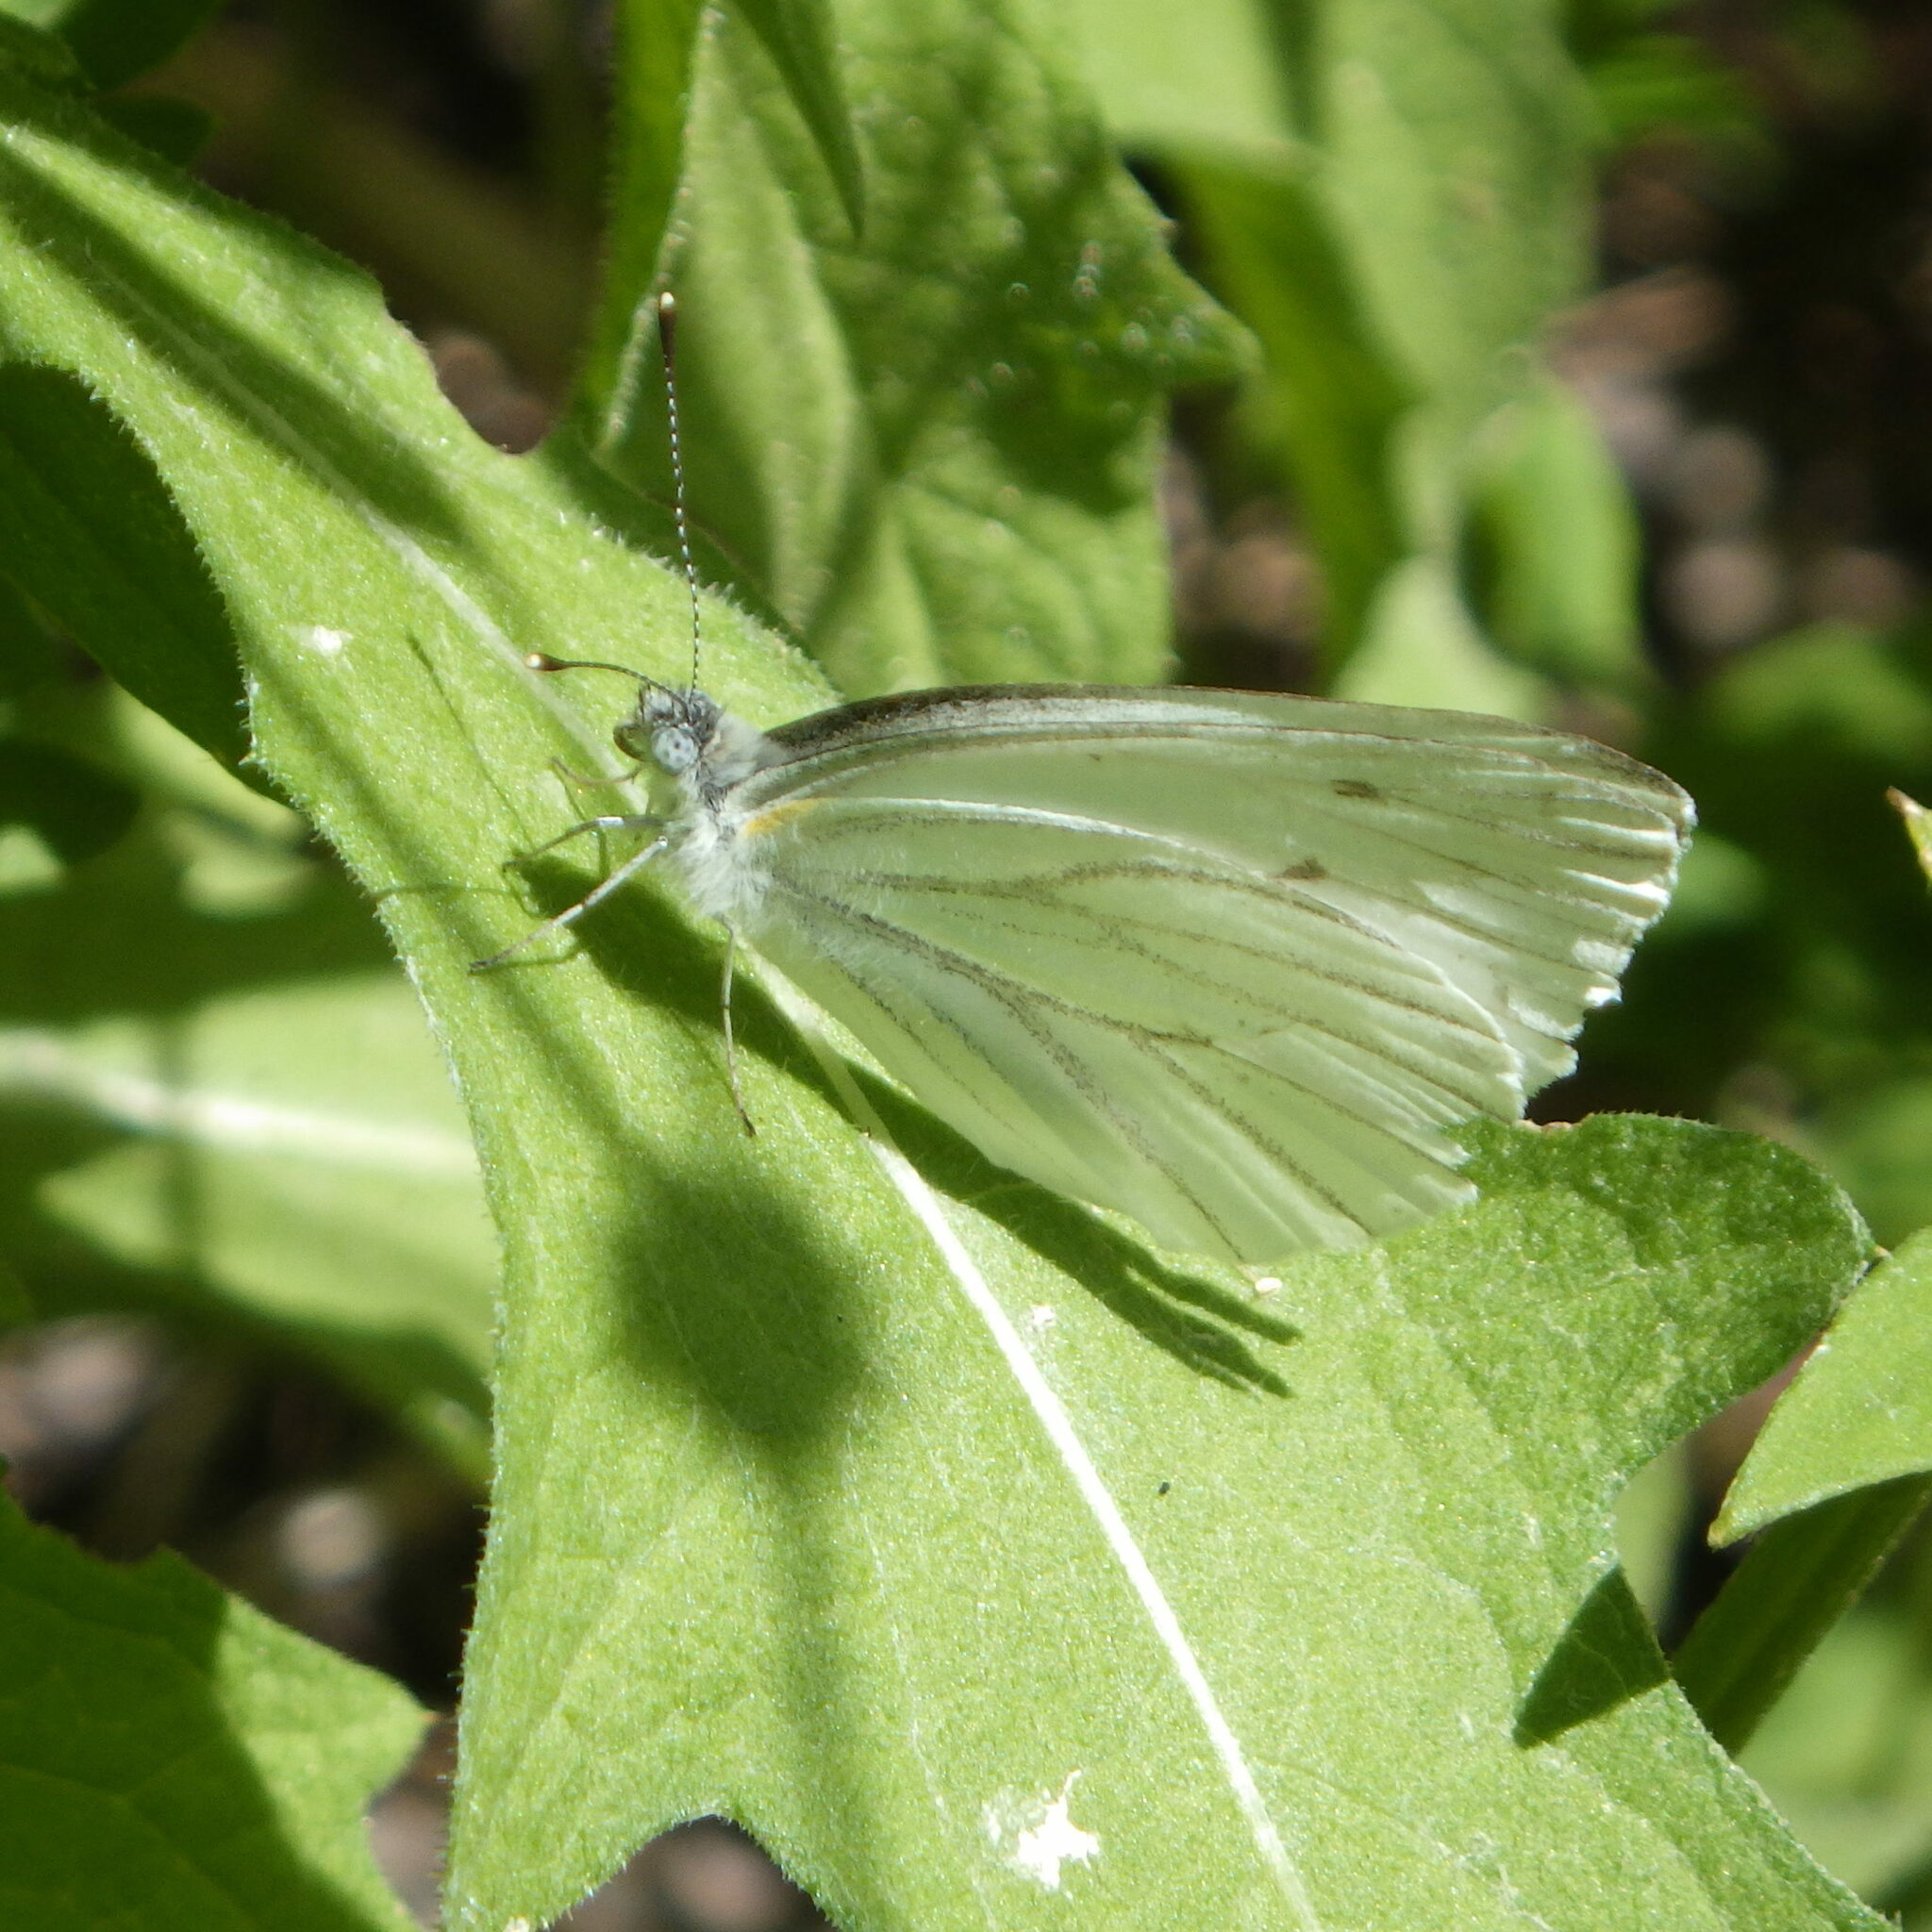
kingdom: Animalia
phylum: Arthropoda
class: Insecta
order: Lepidoptera
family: Pieridae
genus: Pieris
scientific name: Pieris oleracea
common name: Mustard white
